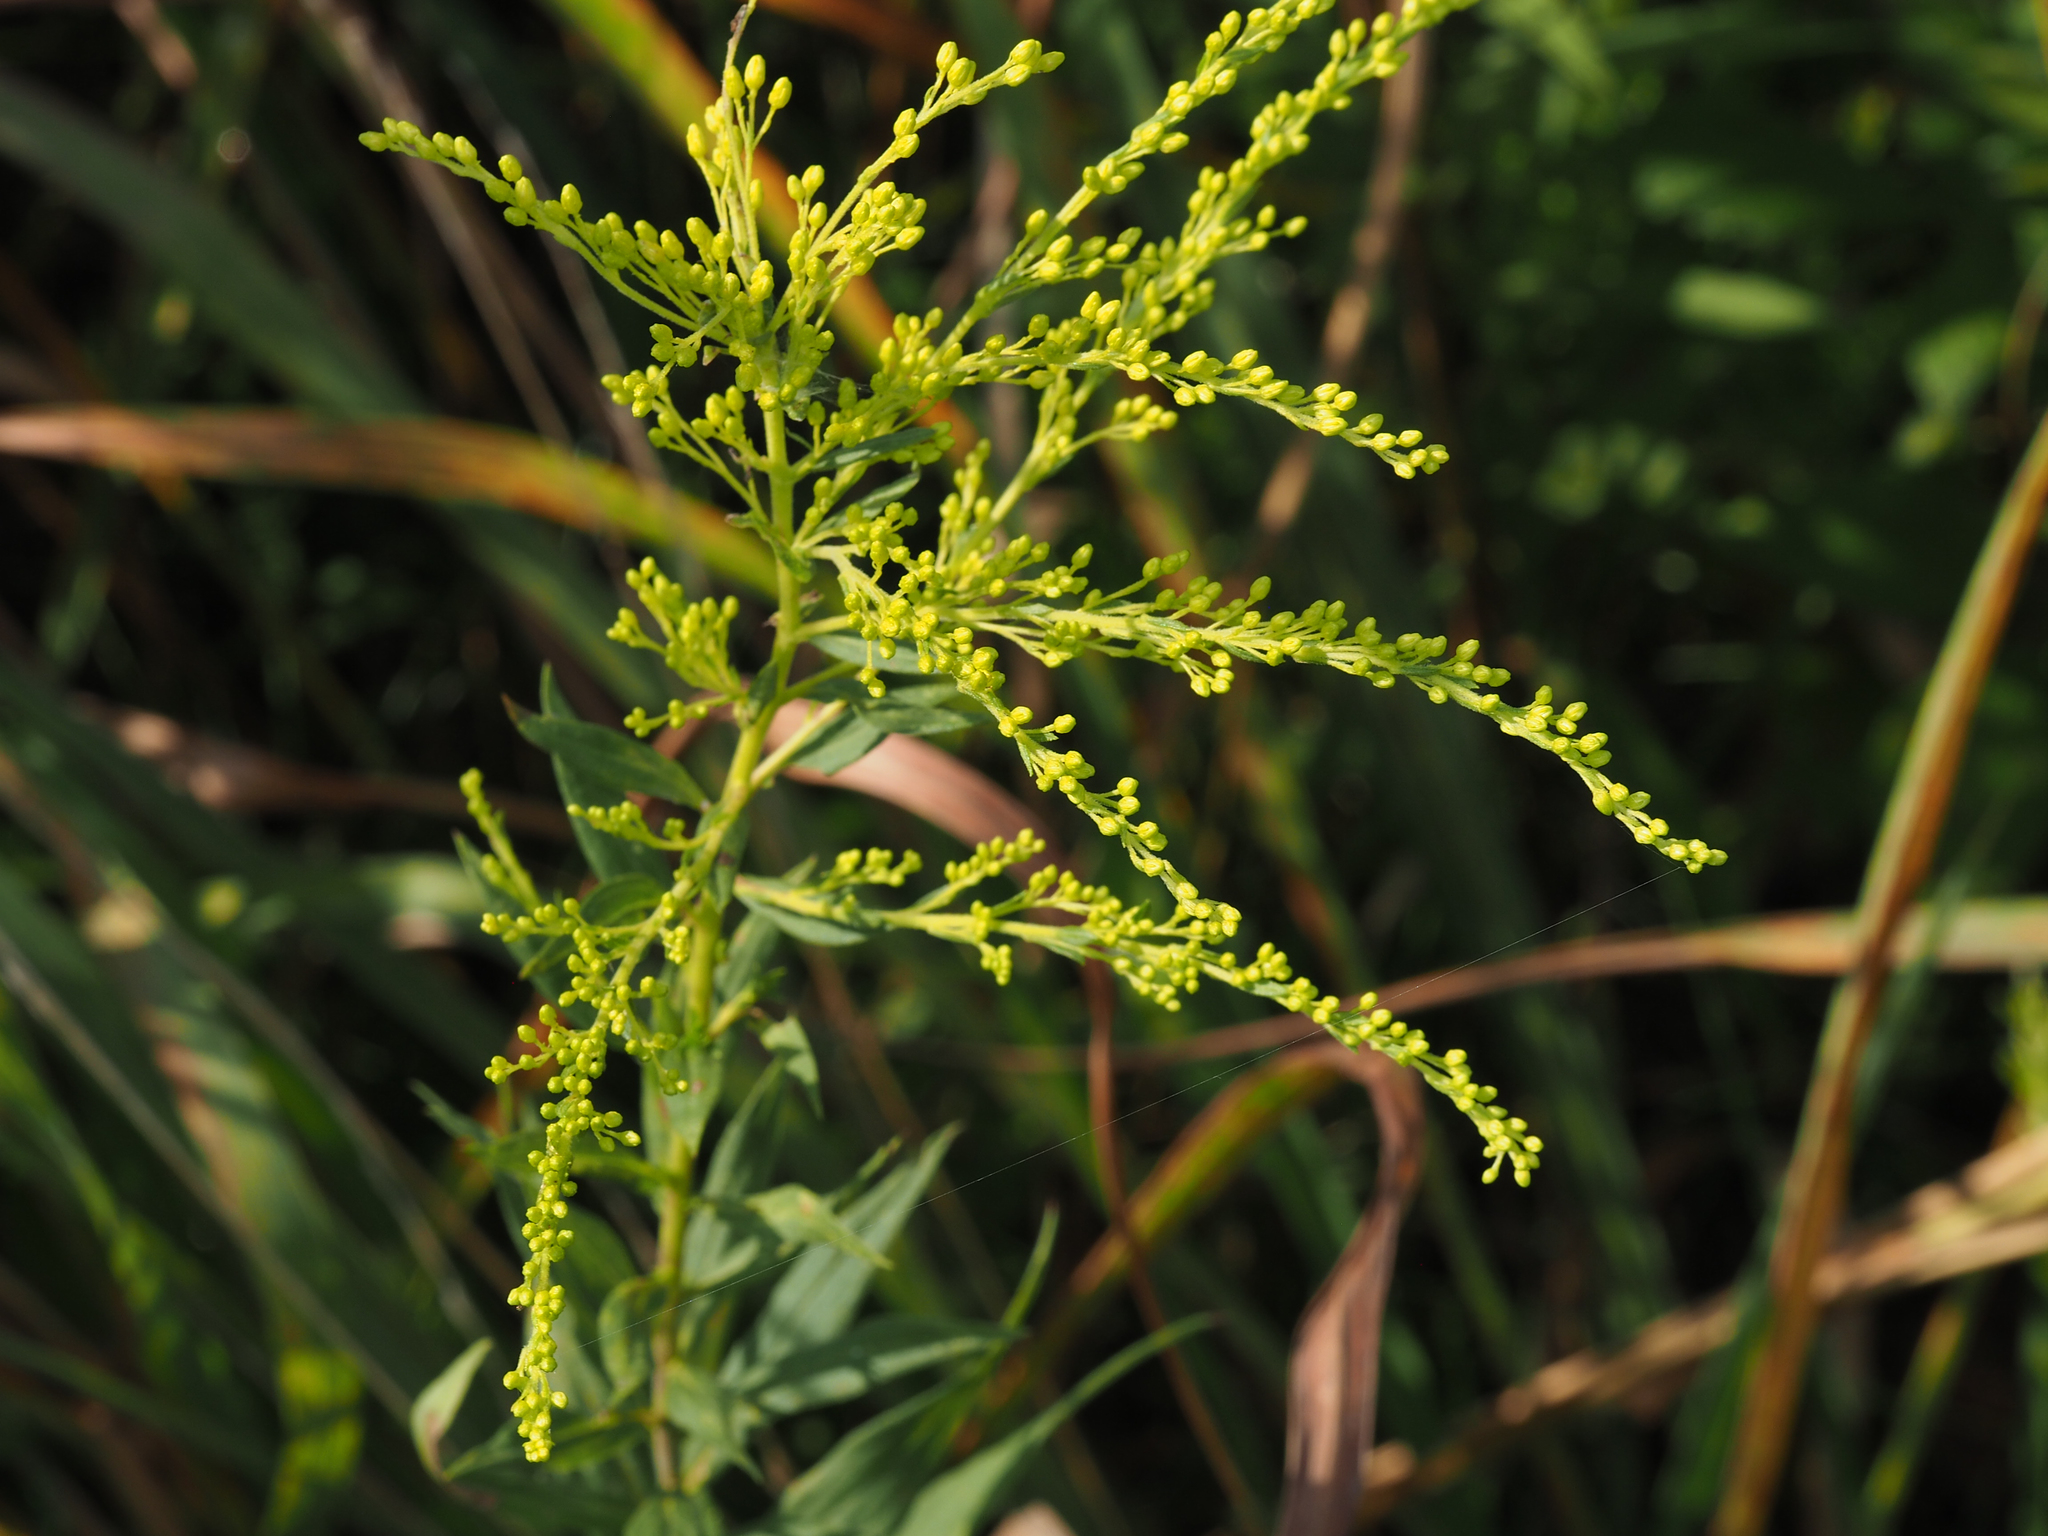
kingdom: Plantae
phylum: Tracheophyta
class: Magnoliopsida
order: Asterales
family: Asteraceae
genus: Solidago
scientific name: Solidago altissima
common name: Late goldenrod
